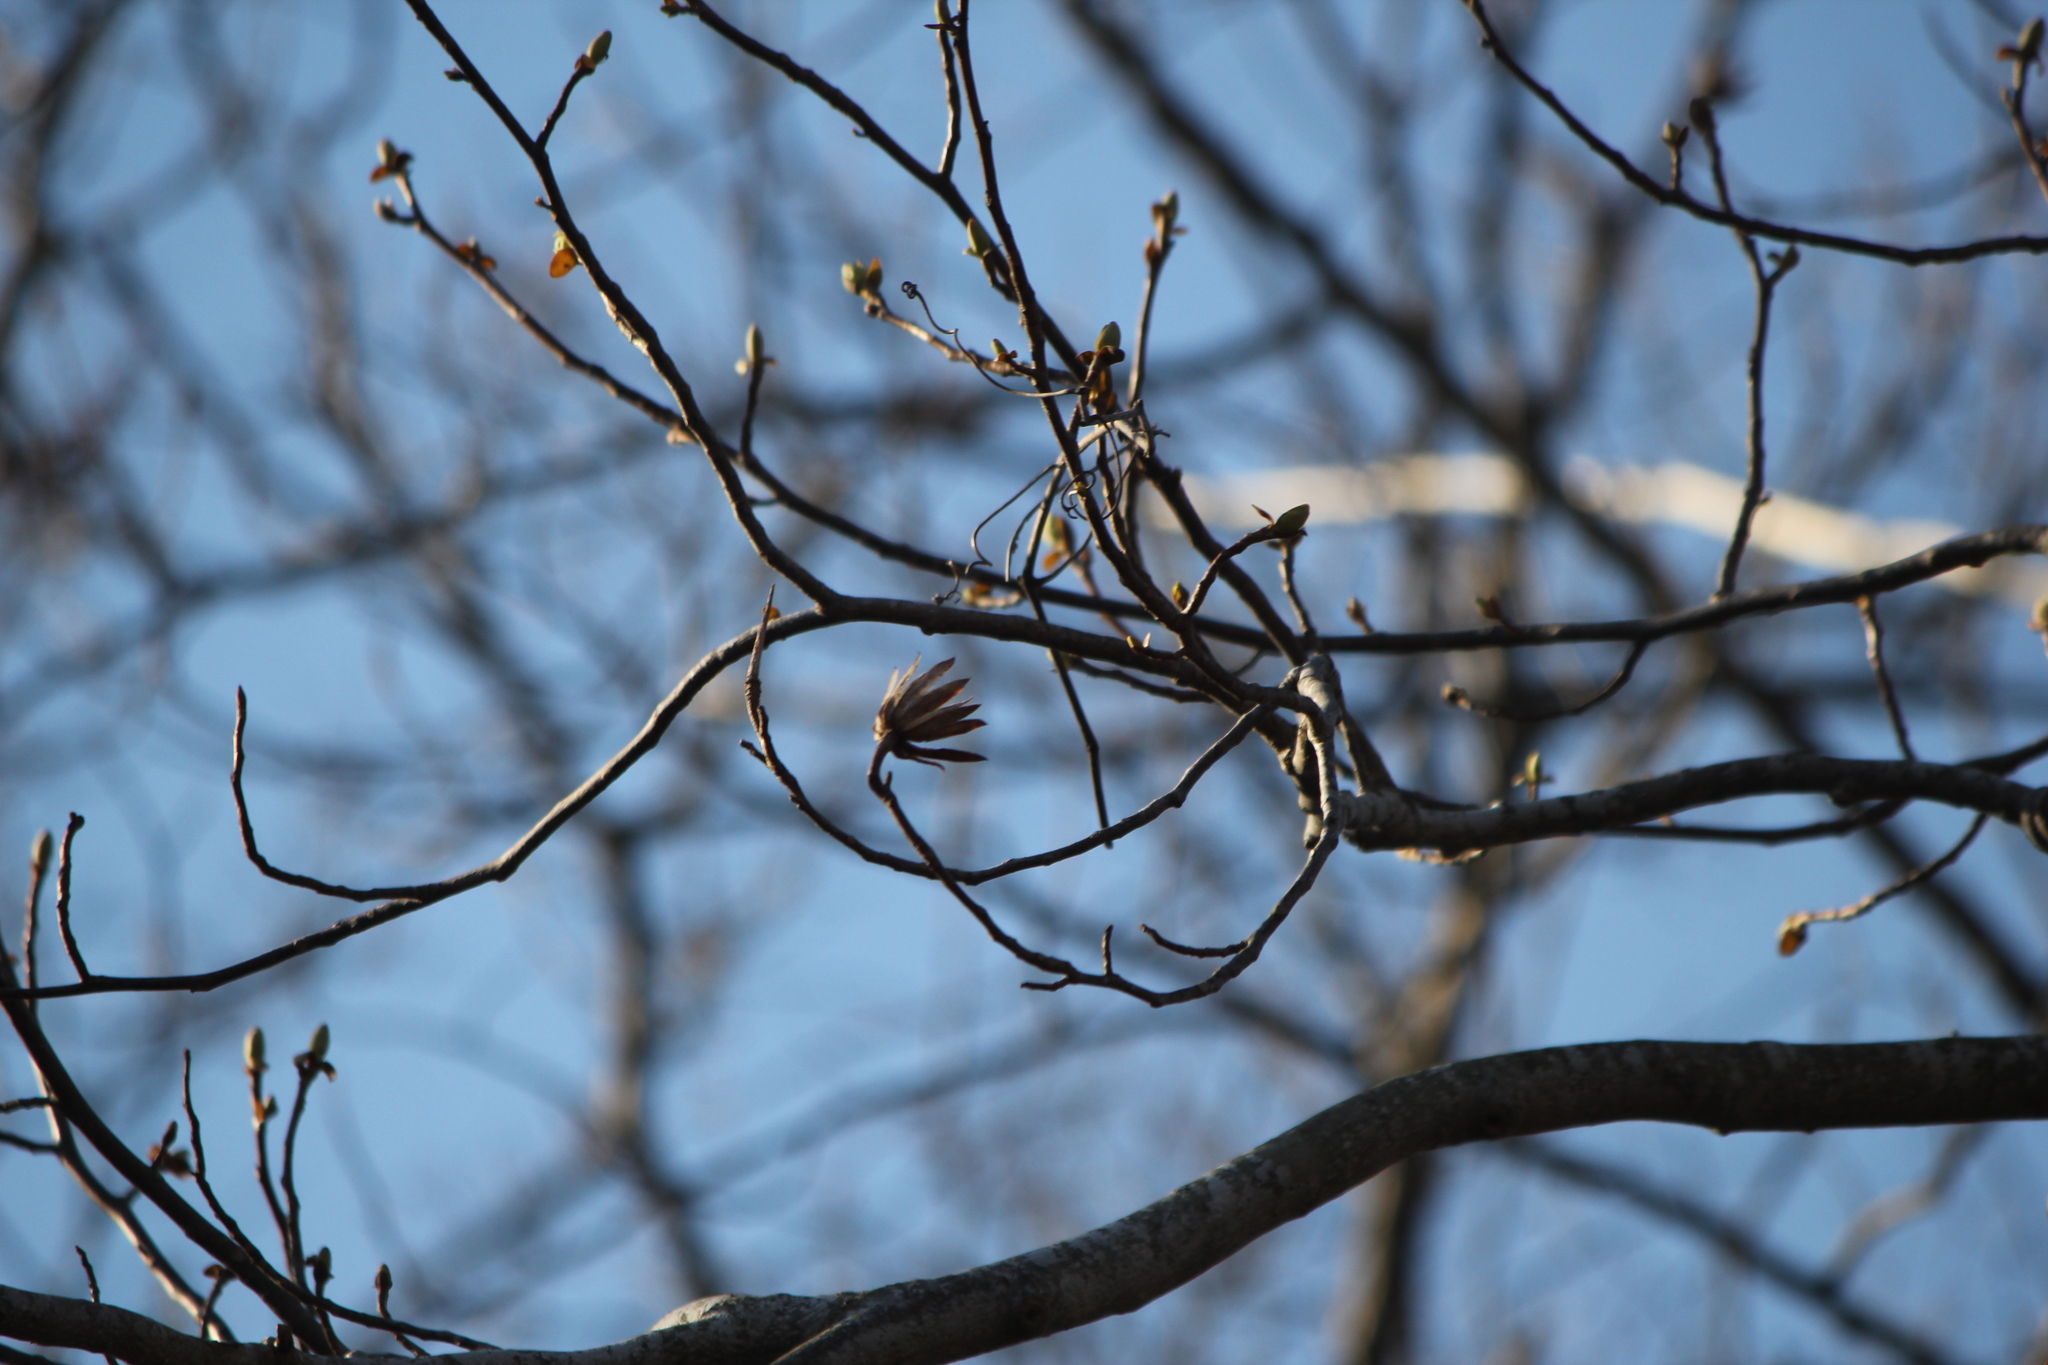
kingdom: Plantae
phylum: Tracheophyta
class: Magnoliopsida
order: Magnoliales
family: Magnoliaceae
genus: Liriodendron
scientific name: Liriodendron tulipifera
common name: Tulip tree
